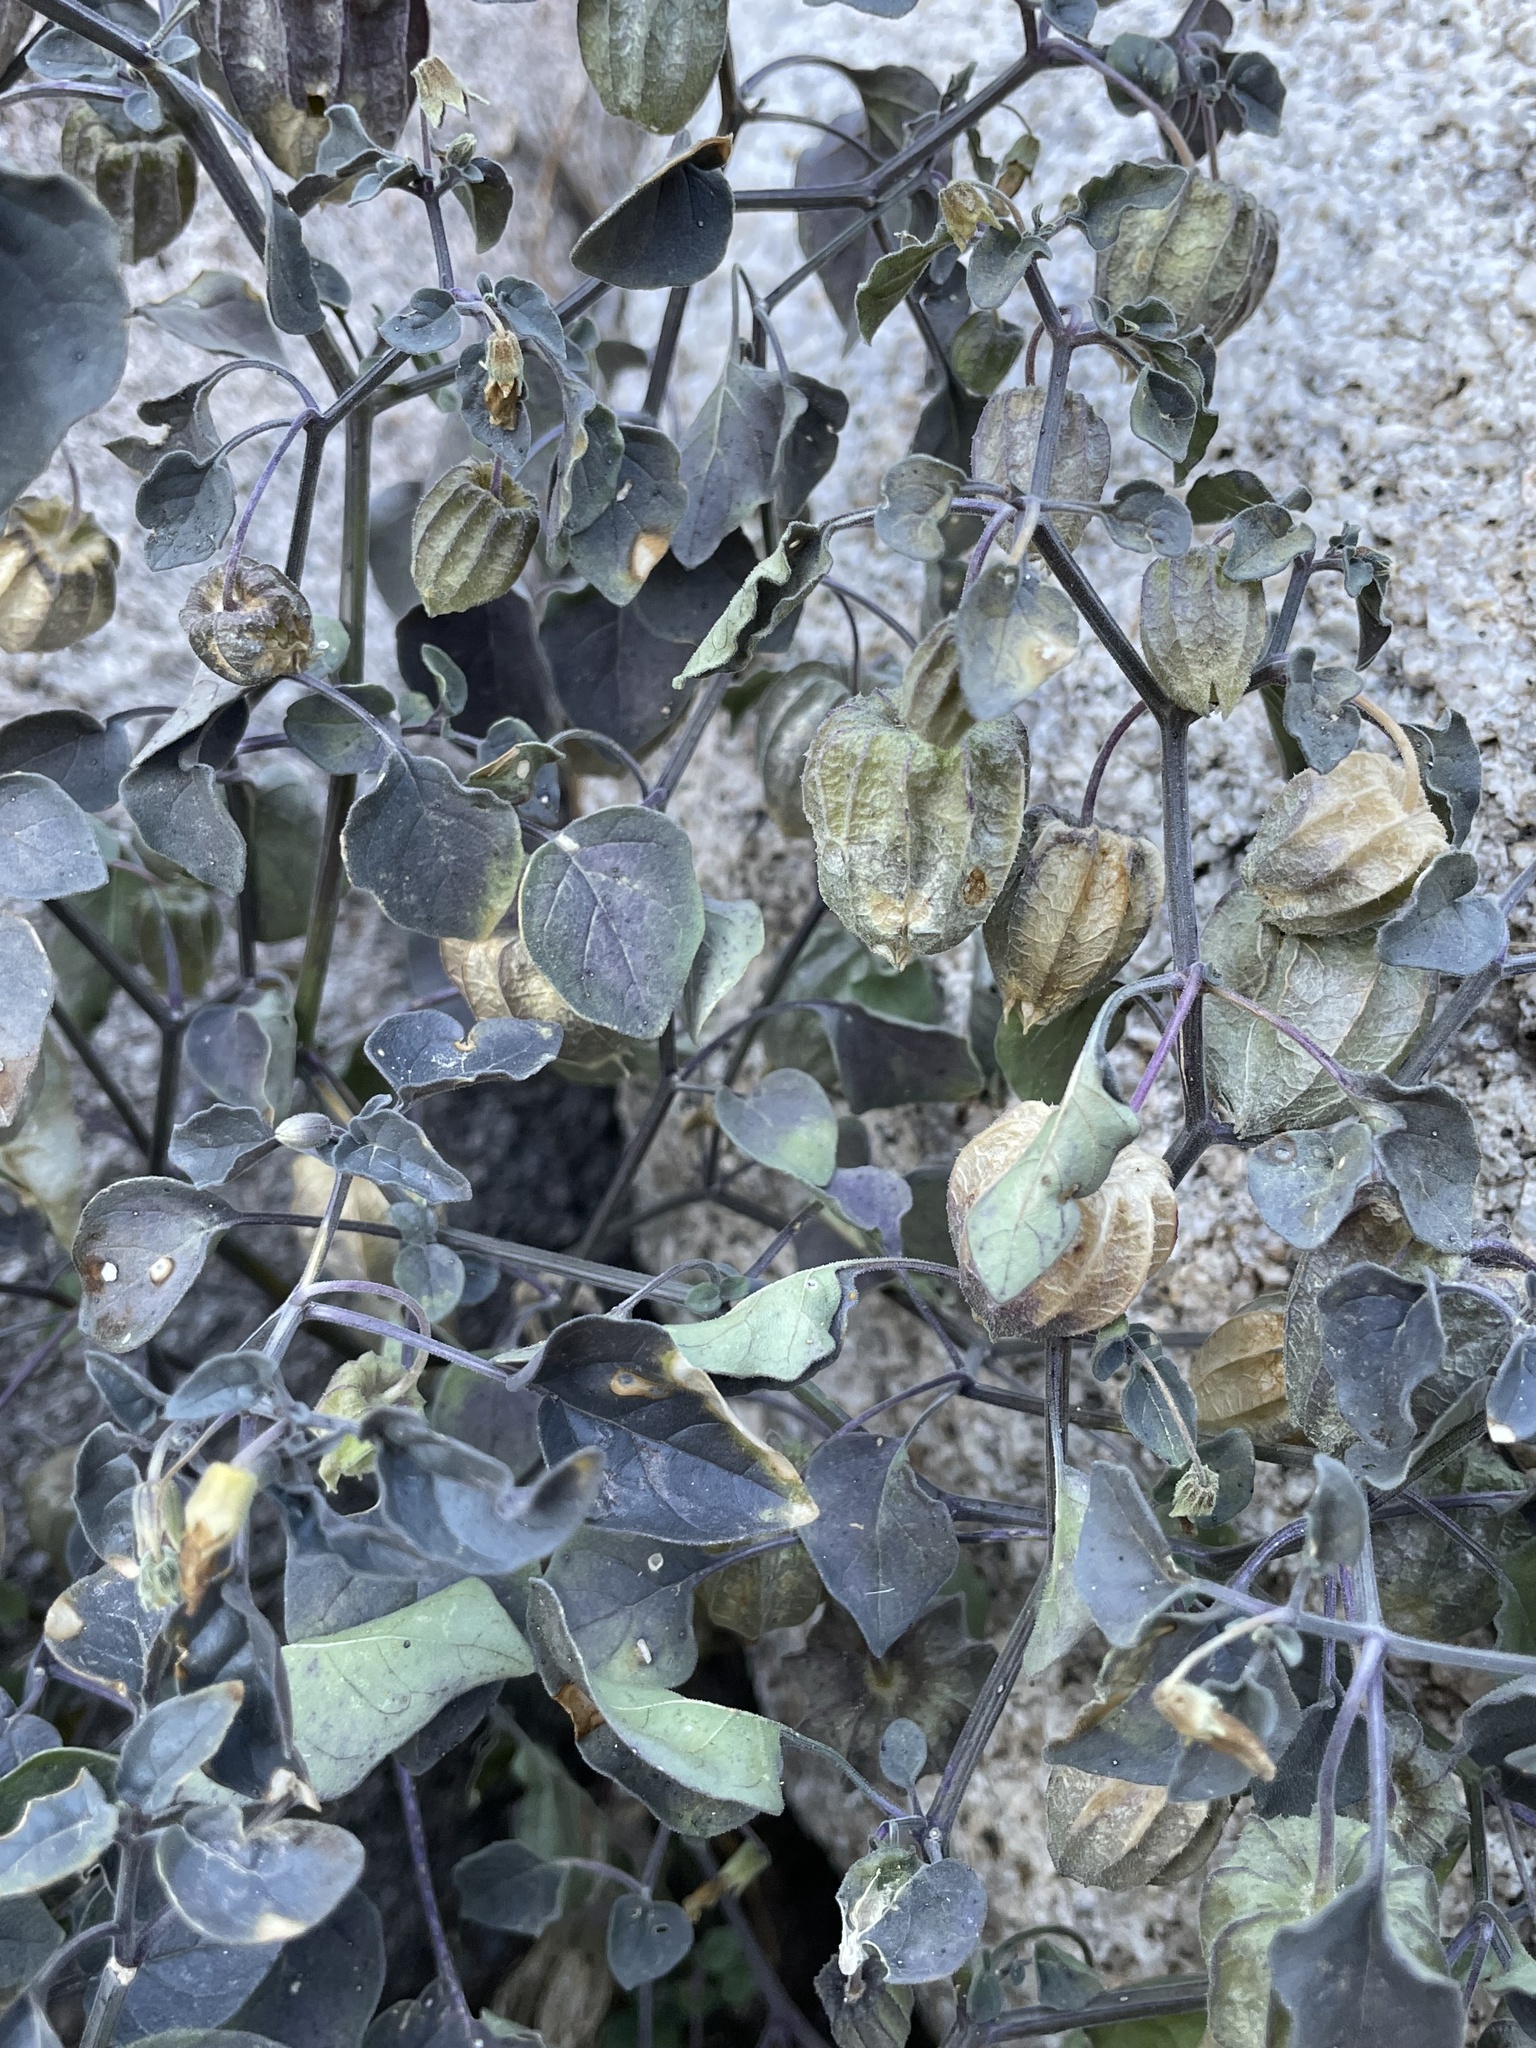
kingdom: Plantae
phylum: Tracheophyta
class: Magnoliopsida
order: Solanales
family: Solanaceae
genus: Physalis
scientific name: Physalis crassifolia
